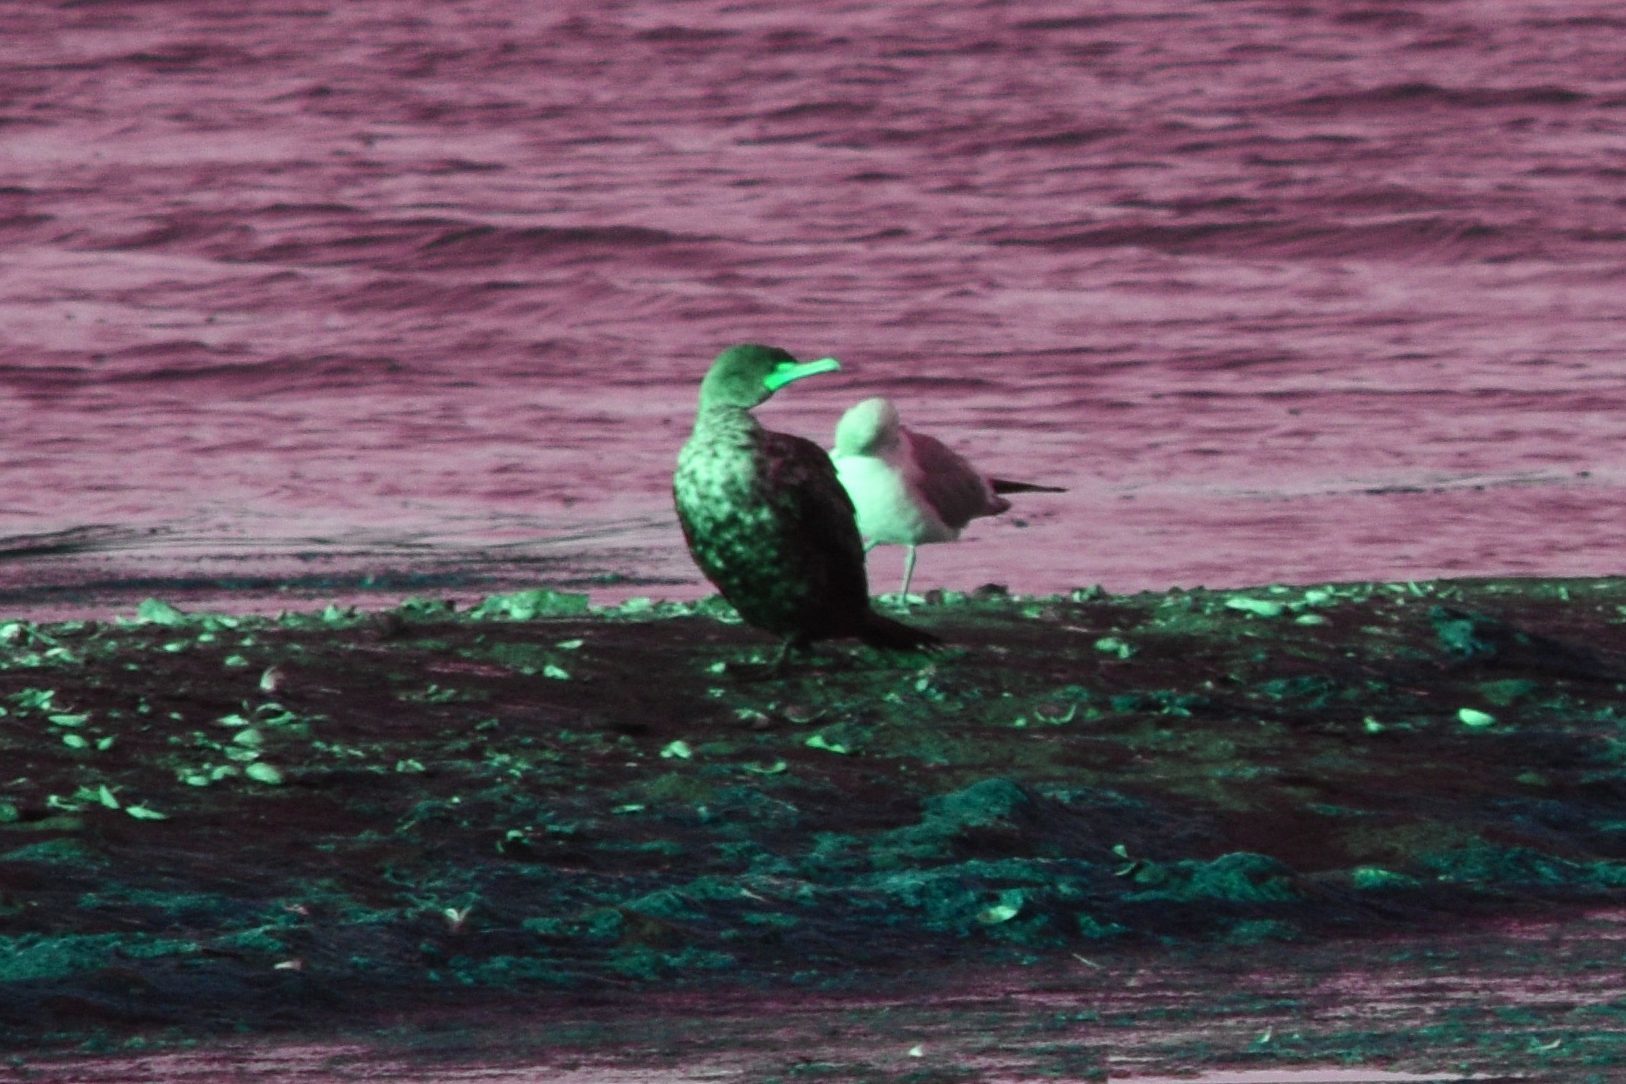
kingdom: Animalia
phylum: Chordata
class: Aves
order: Suliformes
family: Phalacrocoracidae
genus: Phalacrocorax
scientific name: Phalacrocorax auritus
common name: Double-crested cormorant
